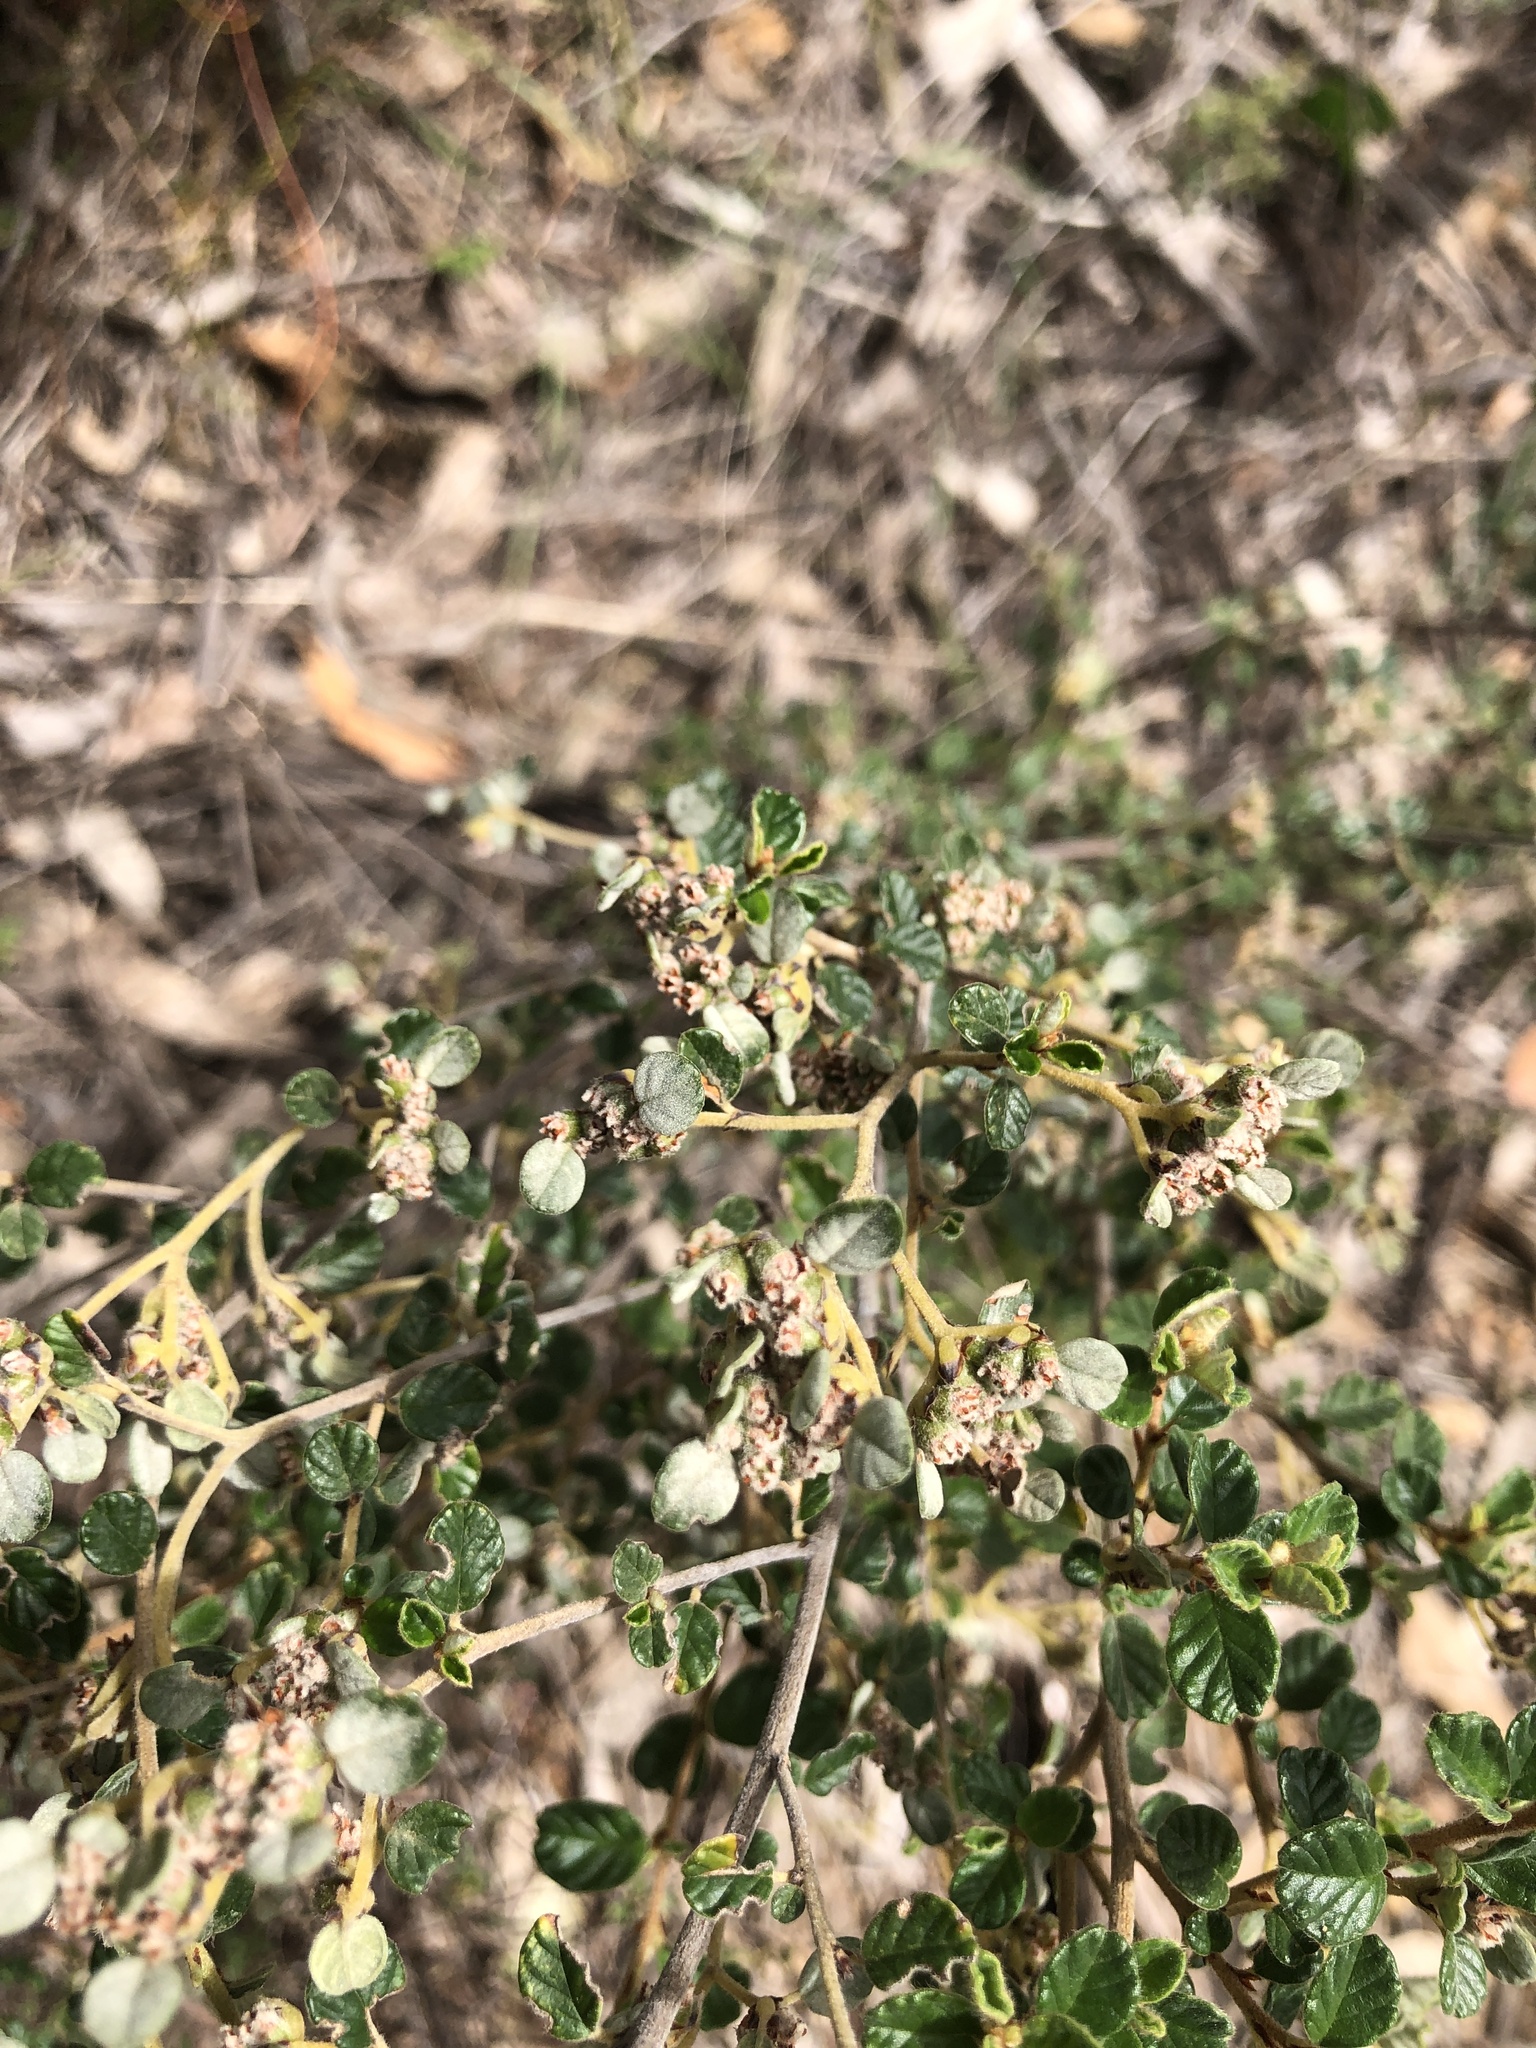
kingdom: Plantae
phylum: Tracheophyta
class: Magnoliopsida
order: Rosales
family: Rhamnaceae
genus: Spyridium
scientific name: Spyridium parvifolium
